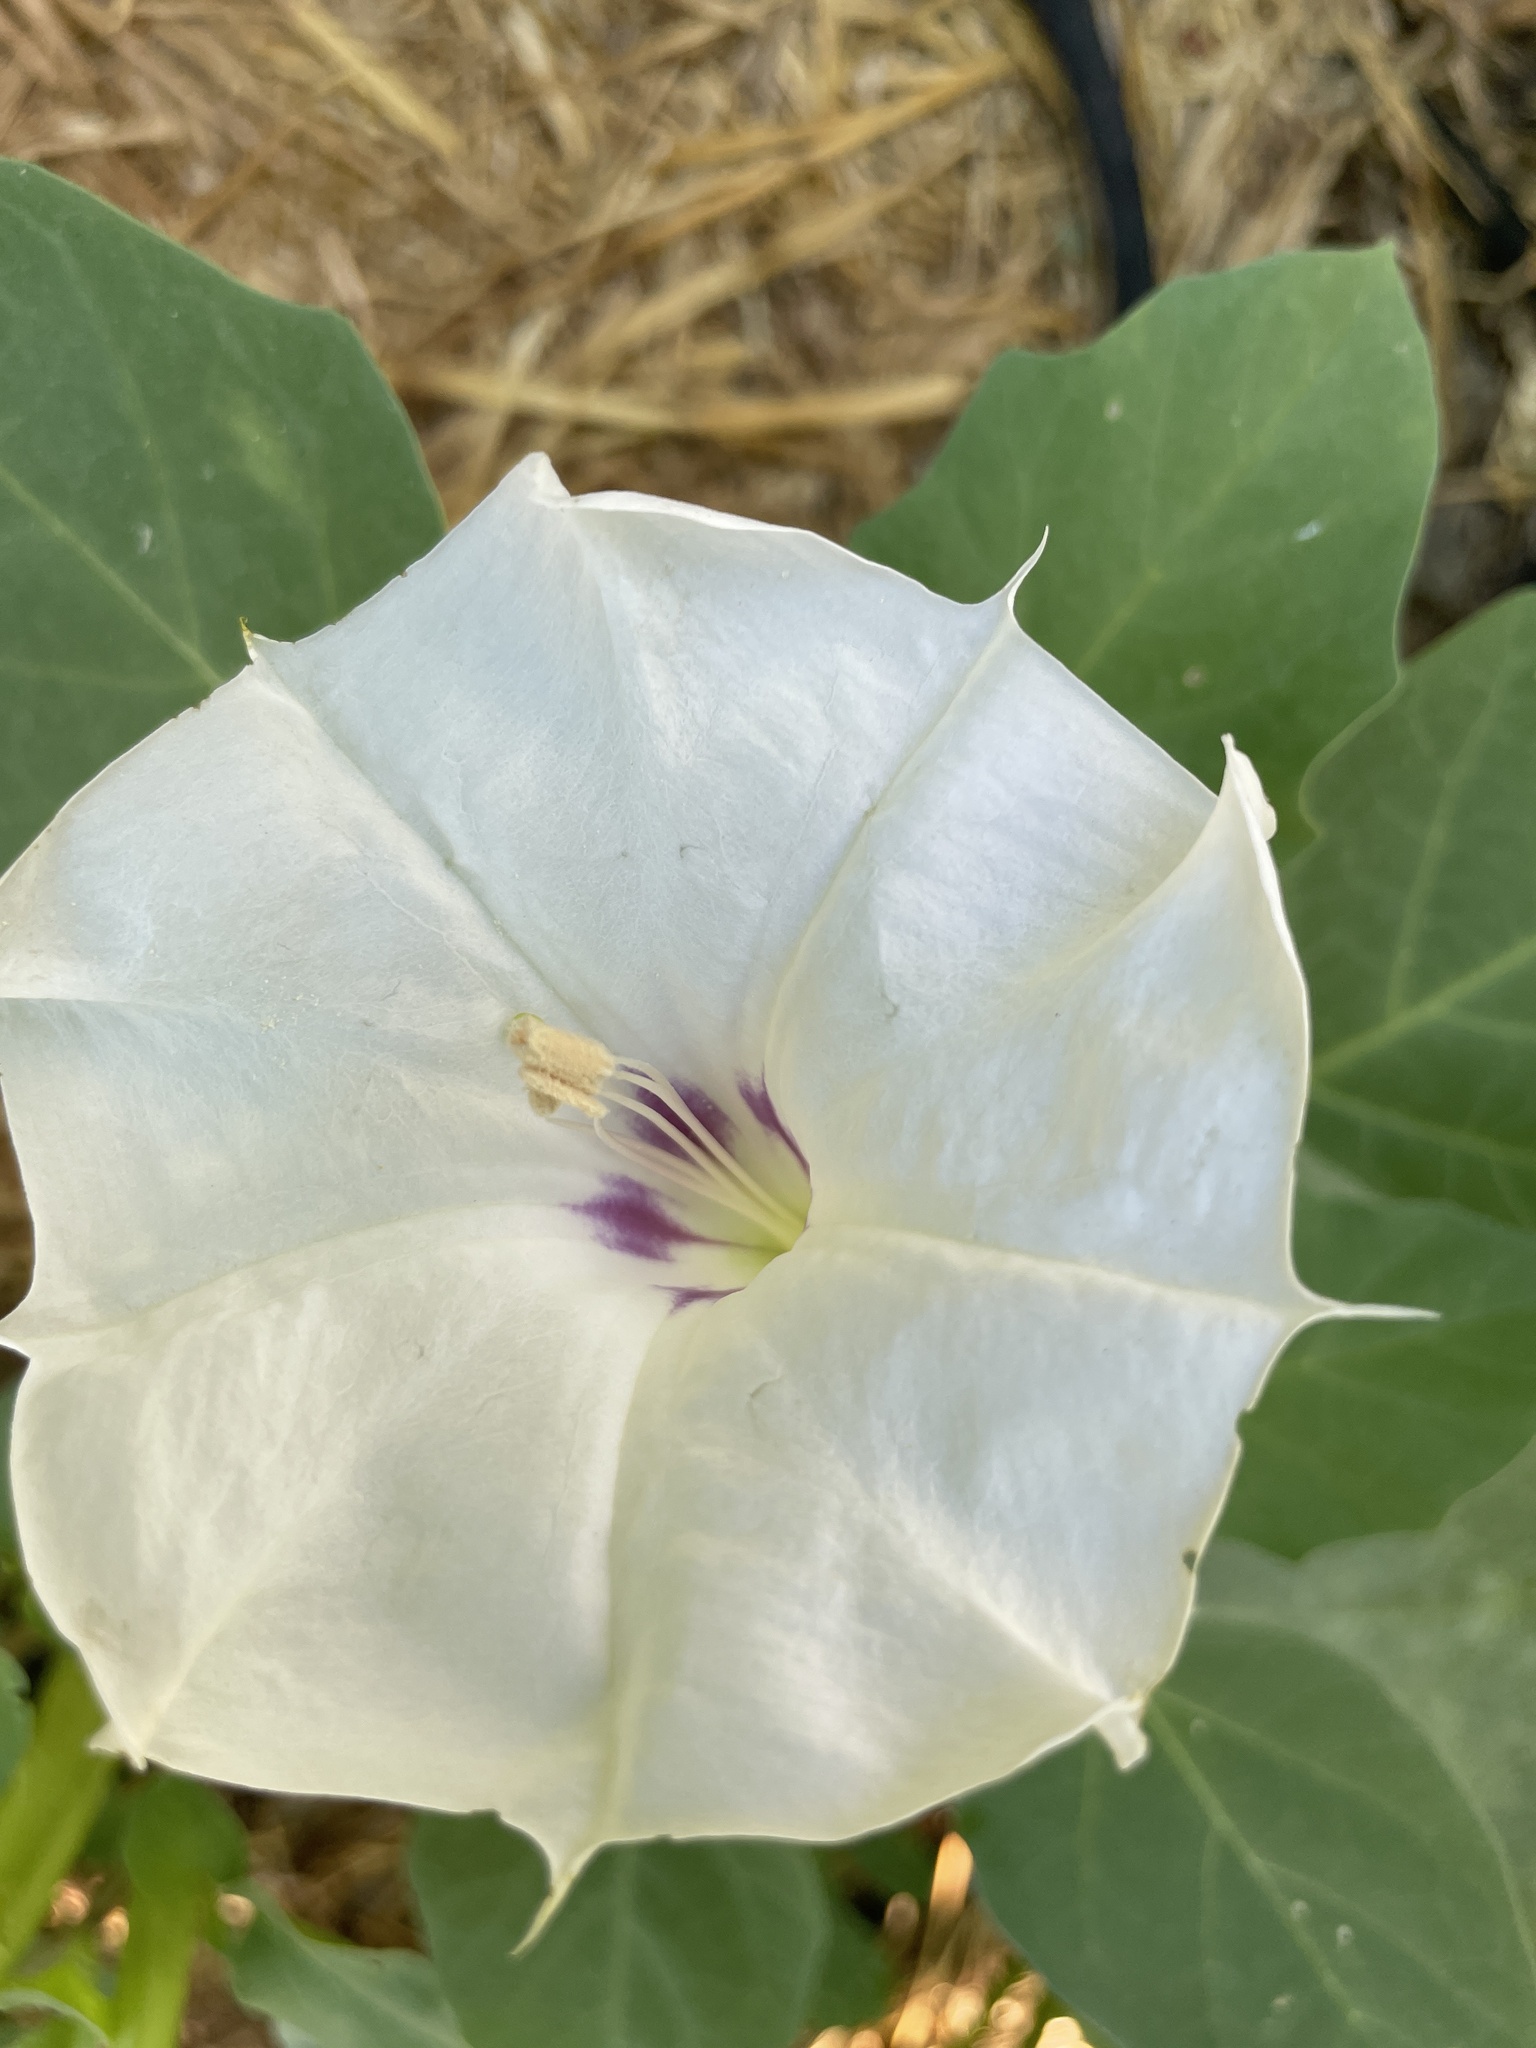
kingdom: Plantae
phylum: Tracheophyta
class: Magnoliopsida
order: Solanales
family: Solanaceae
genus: Datura
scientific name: Datura discolor
